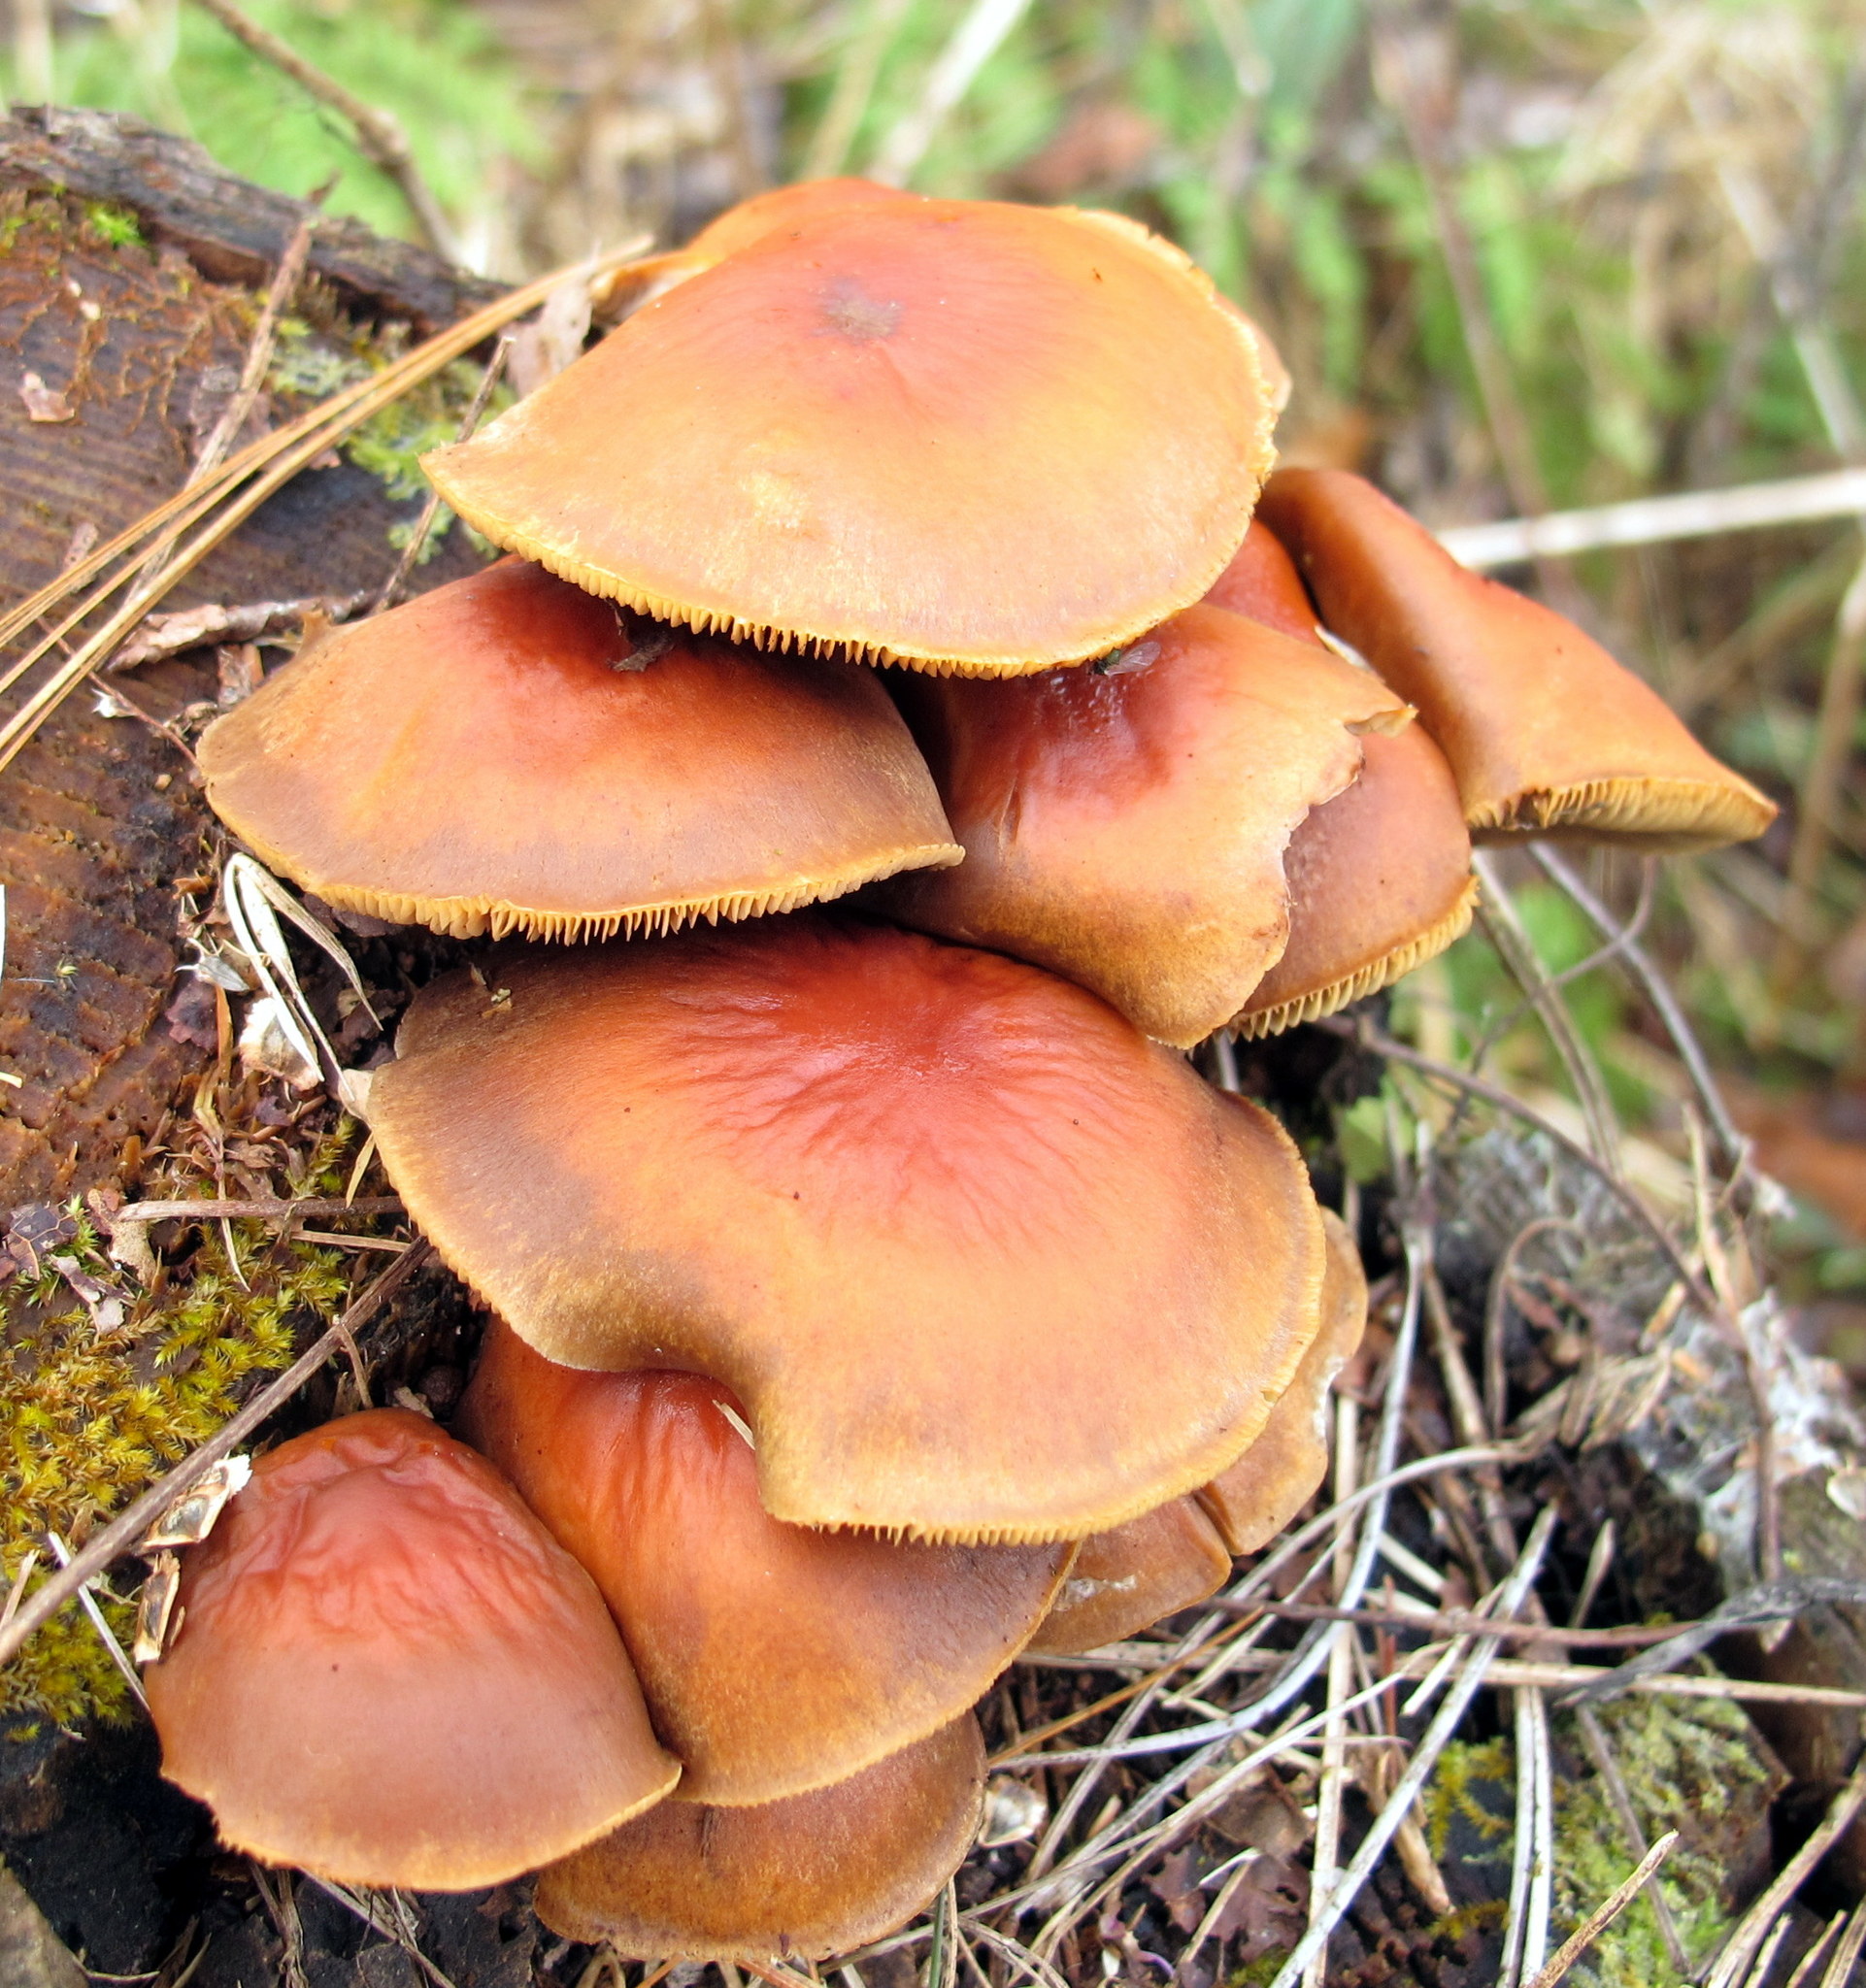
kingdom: Fungi
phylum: Basidiomycota
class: Agaricomycetes
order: Agaricales
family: Strophariaceae
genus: Hypholoma
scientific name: Hypholoma lateritium
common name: Brick caps
